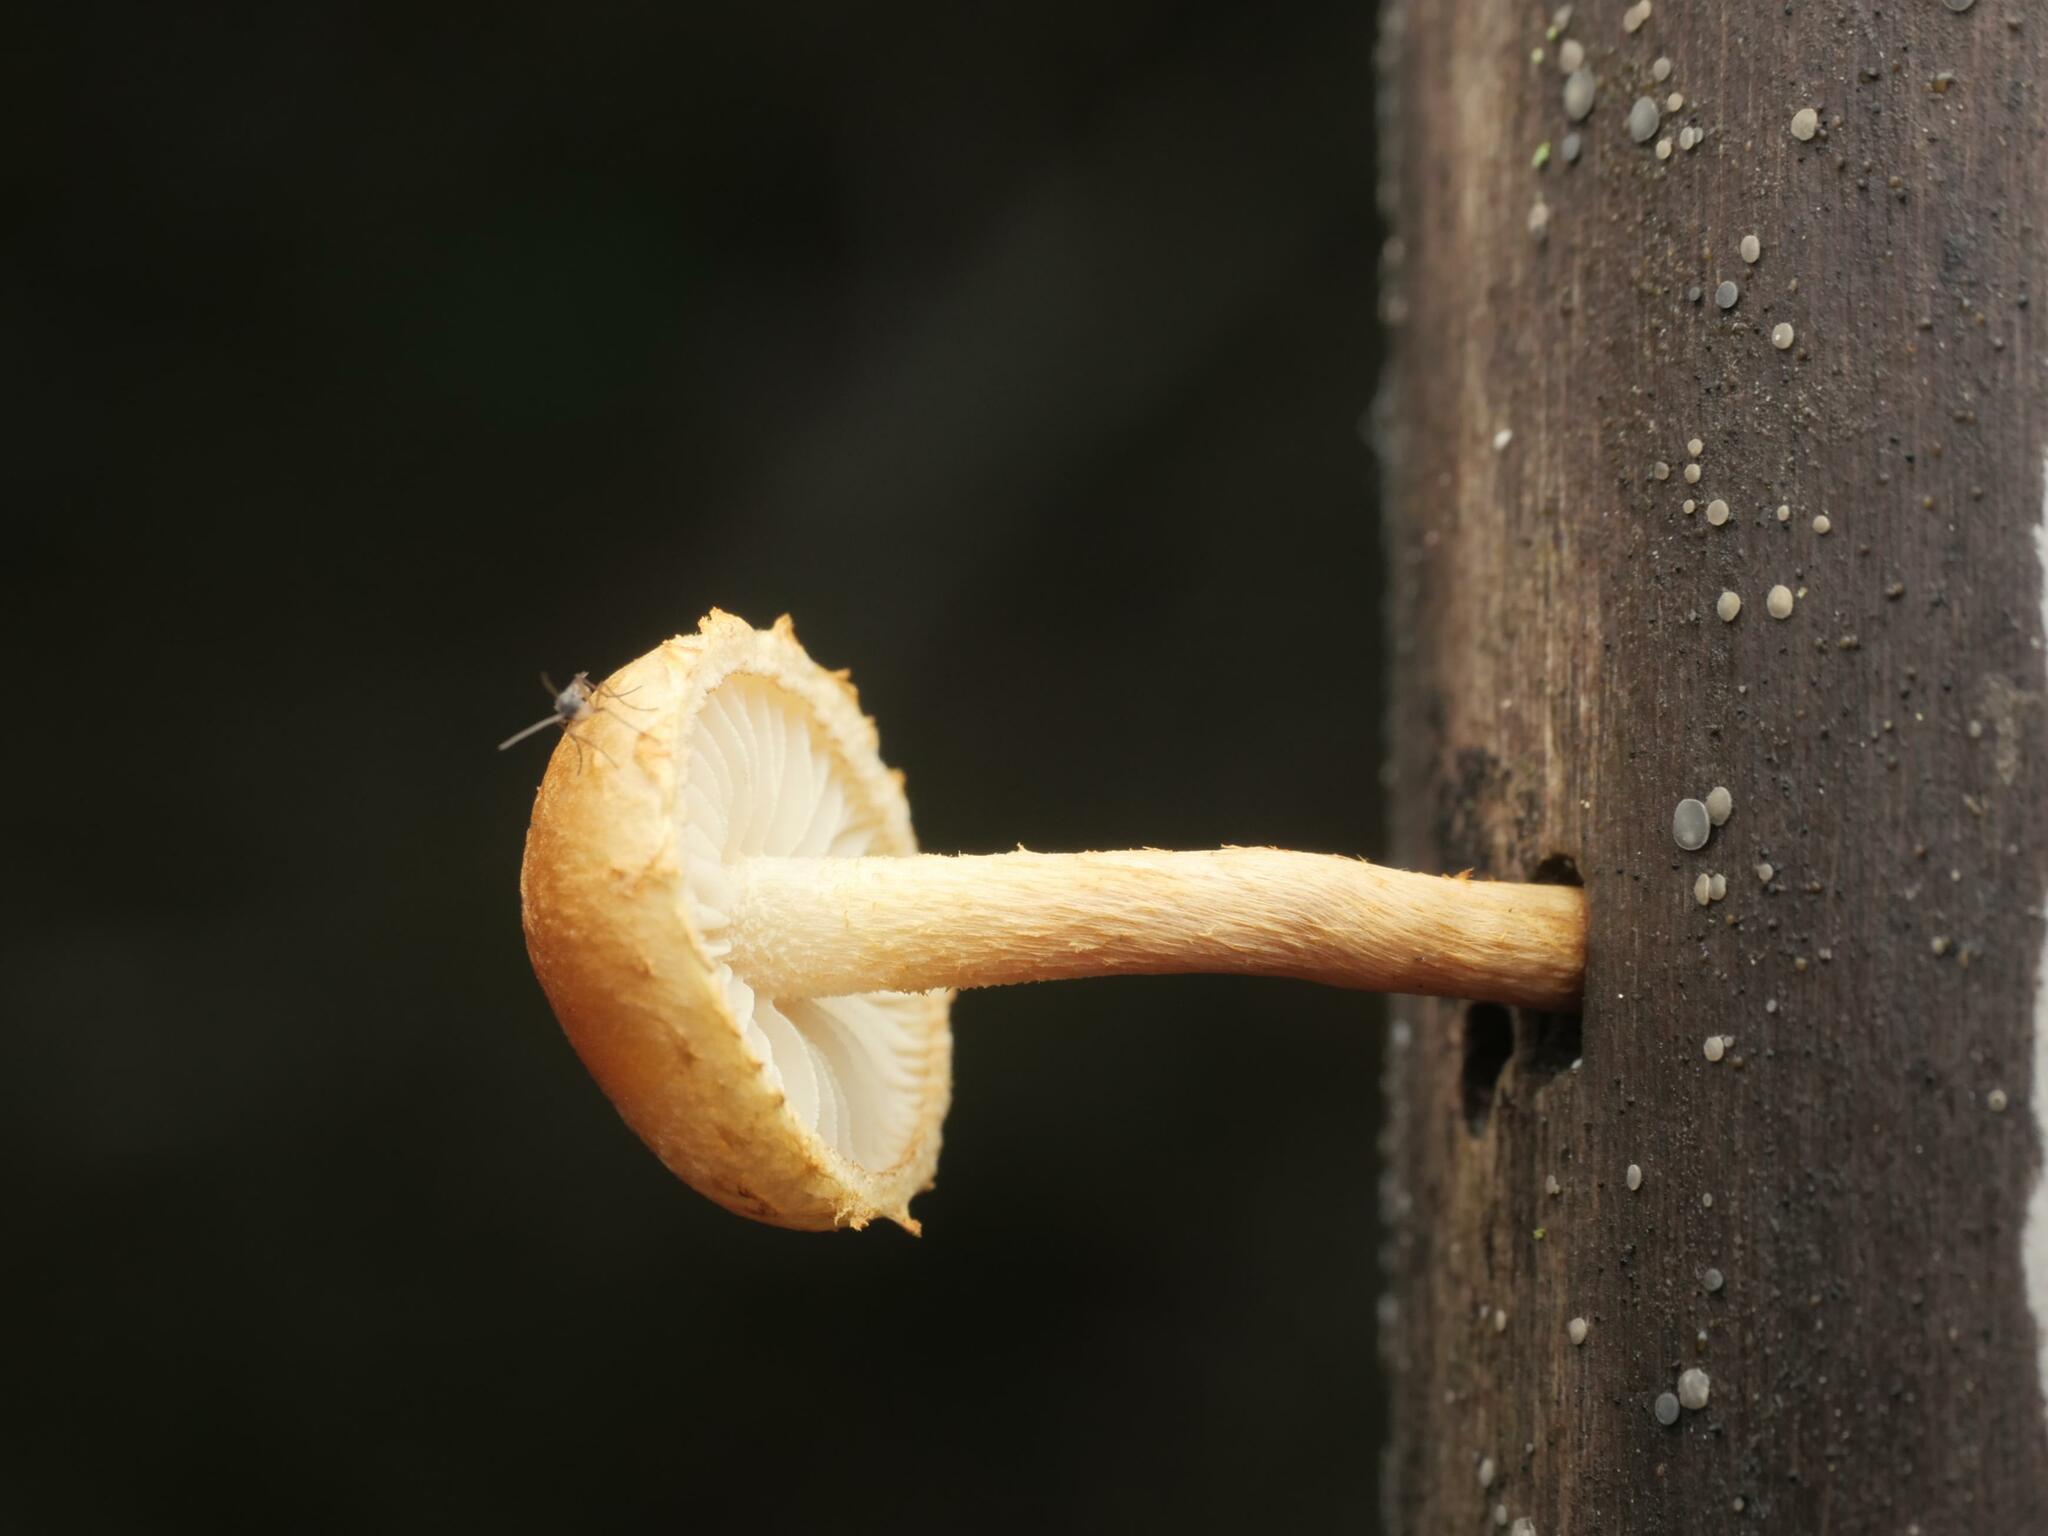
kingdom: Fungi
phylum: Basidiomycota
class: Agaricomycetes
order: Agaricales
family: Strophariaceae
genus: Pholiota
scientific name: Pholiota tuberculosa
